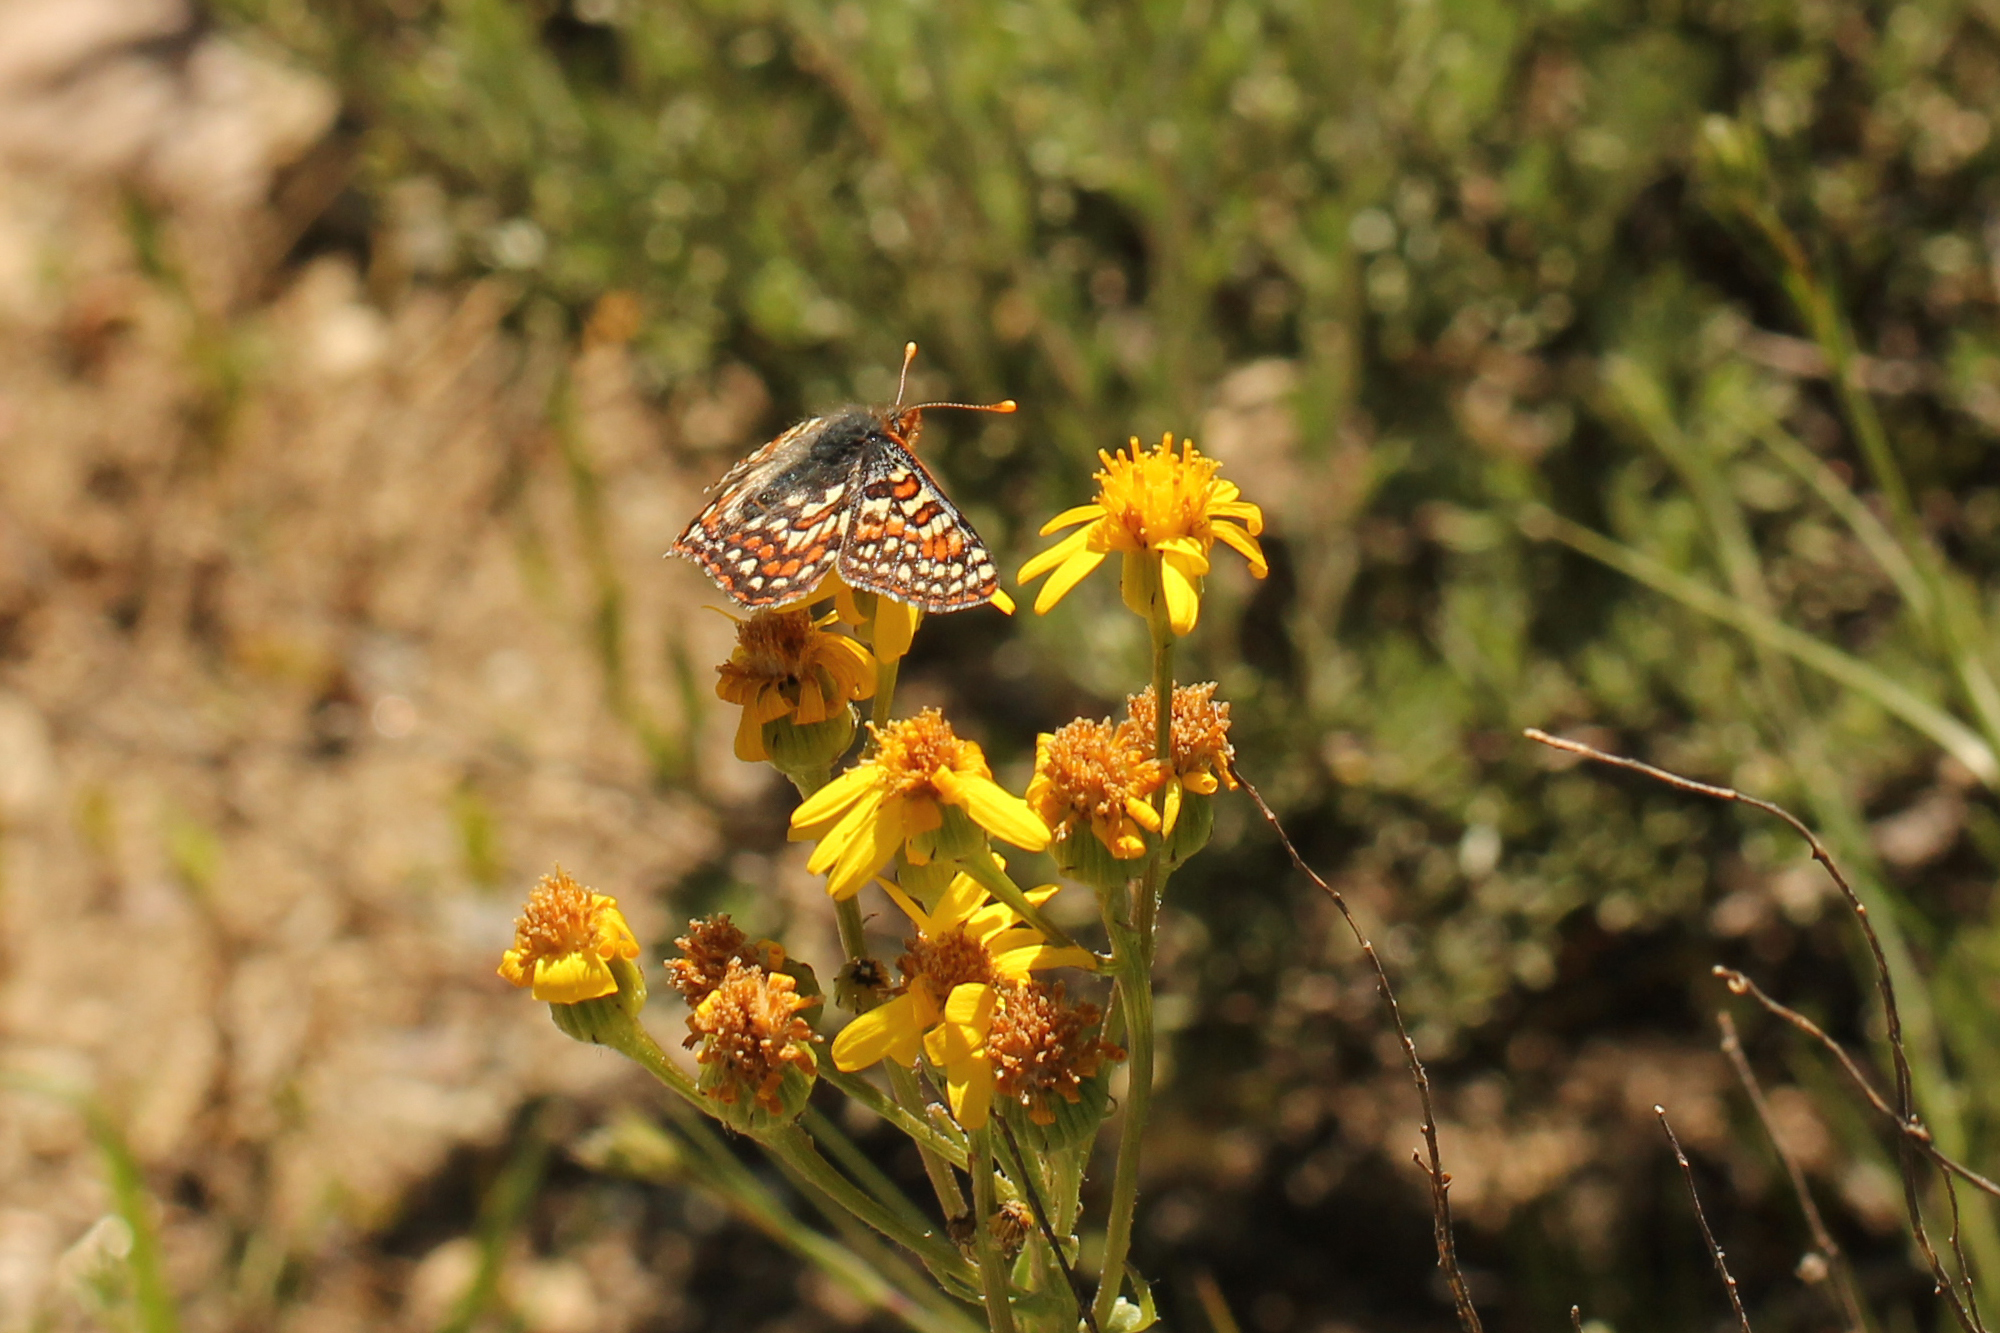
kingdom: Animalia
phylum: Arthropoda
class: Insecta
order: Lepidoptera
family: Nymphalidae
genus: Occidryas
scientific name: Occidryas editha
